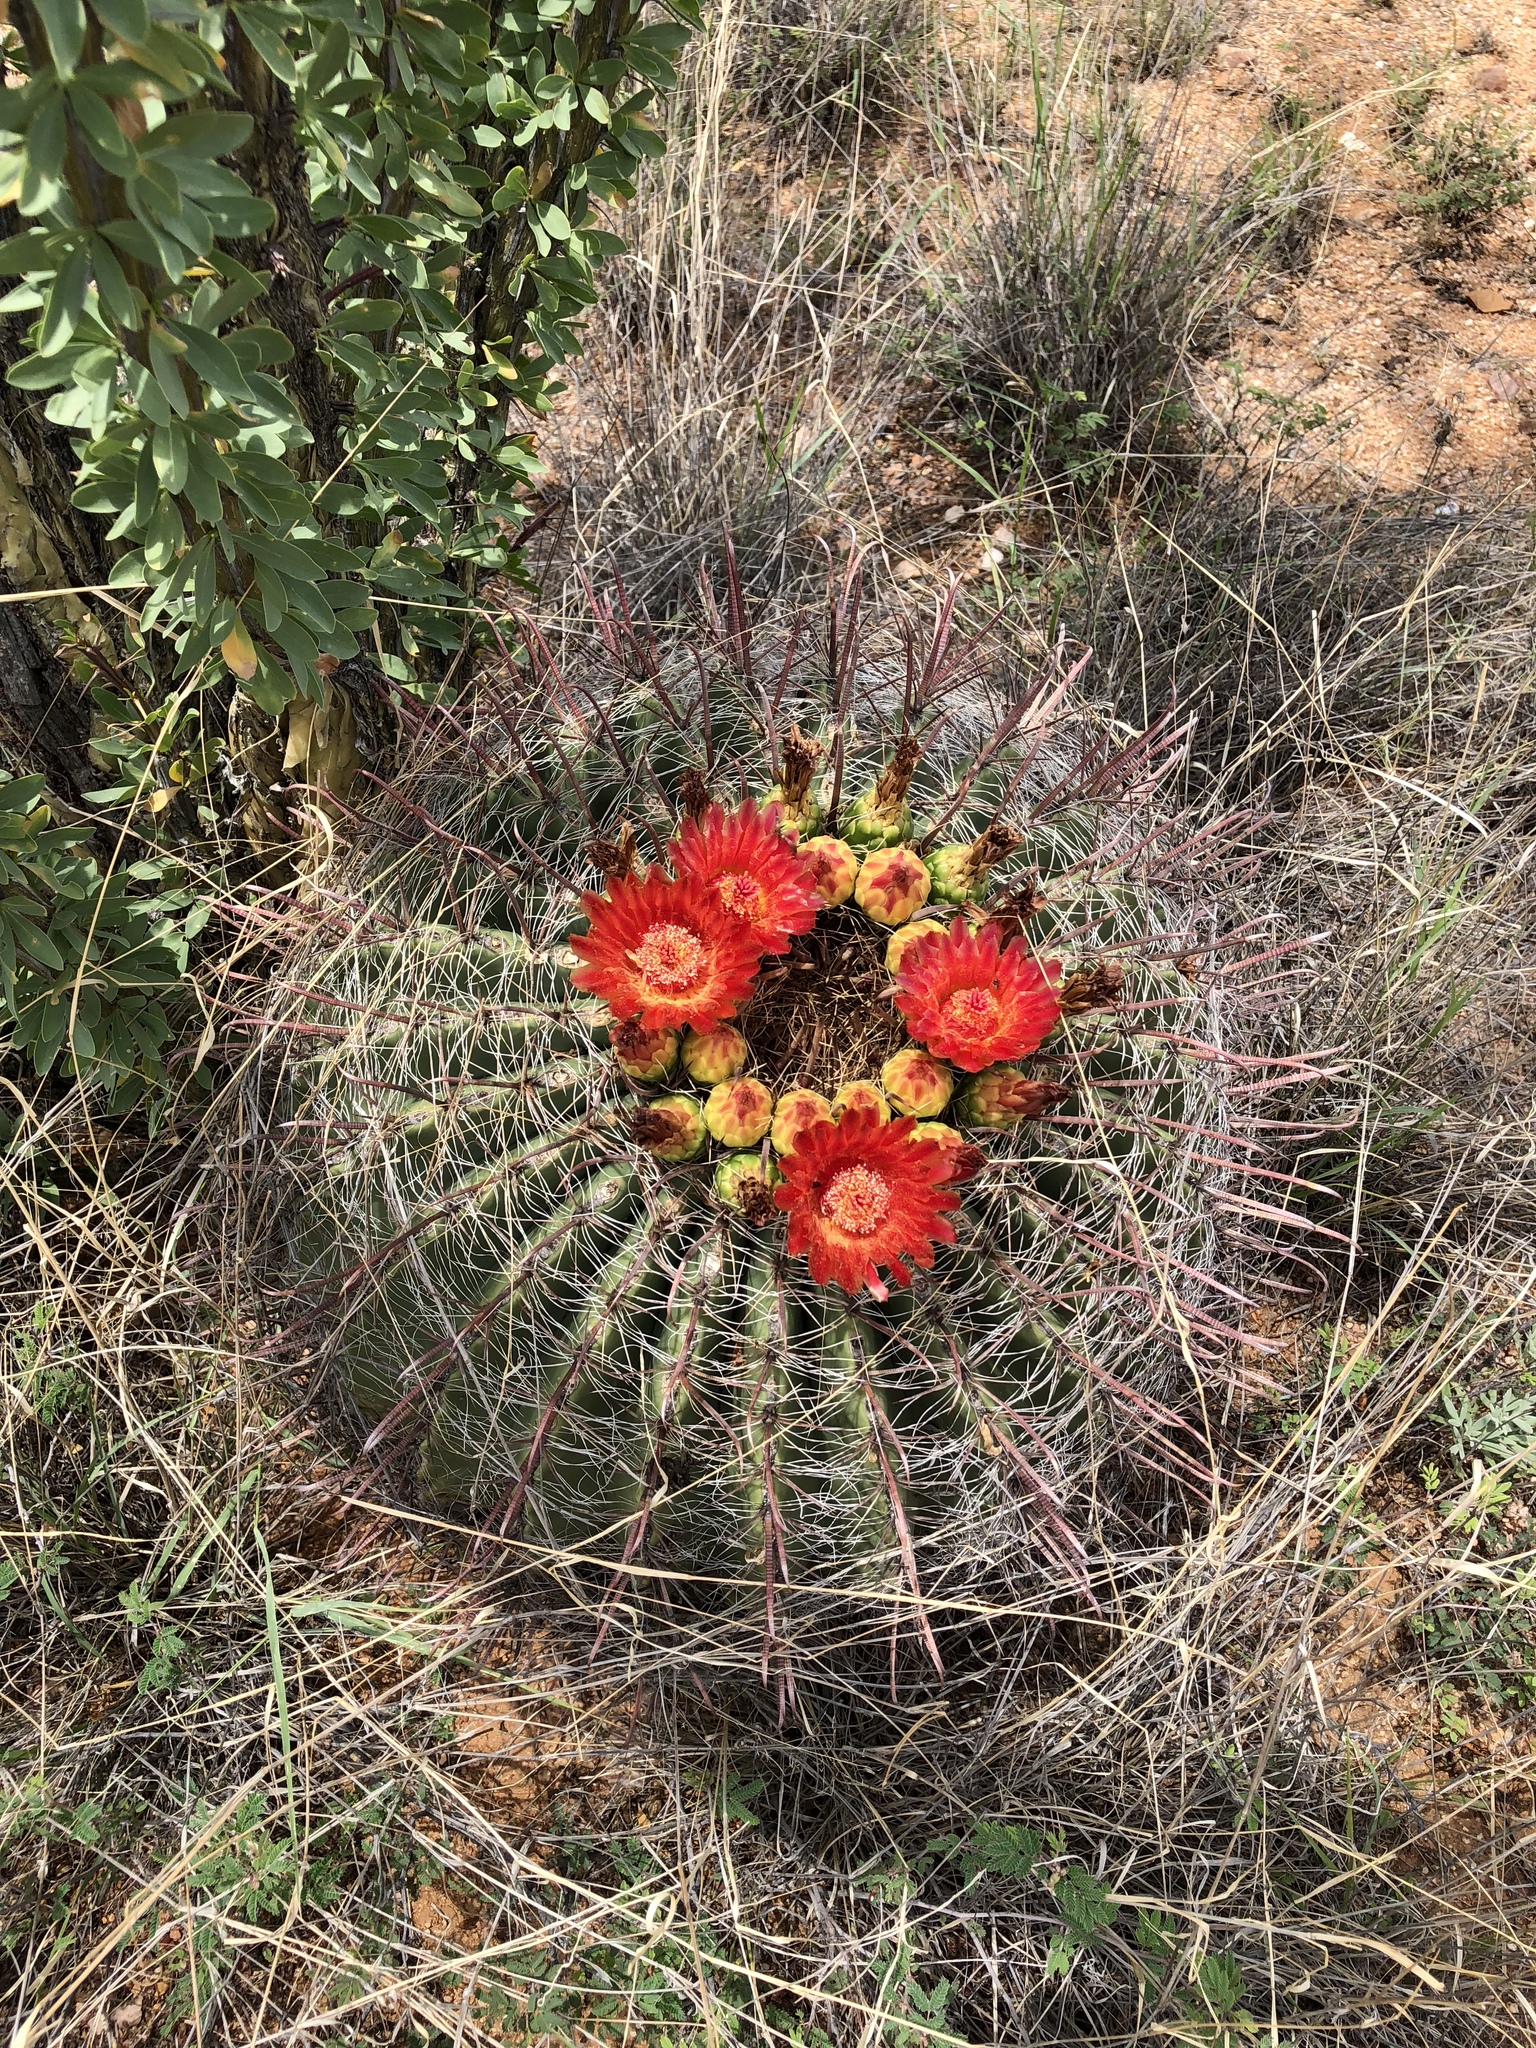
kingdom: Plantae
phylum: Tracheophyta
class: Magnoliopsida
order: Caryophyllales
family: Cactaceae
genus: Ferocactus
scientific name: Ferocactus wislizeni
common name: Candy barrel cactus
